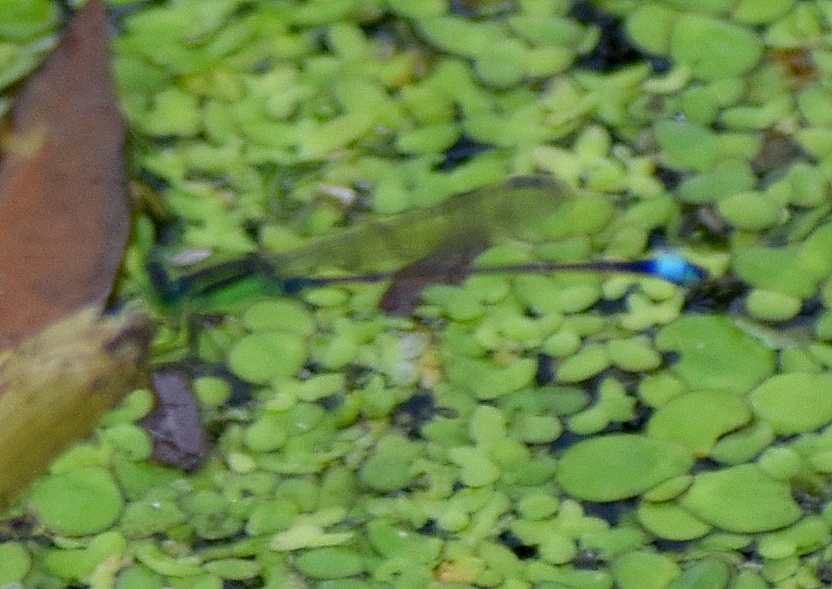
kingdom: Animalia
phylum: Arthropoda
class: Insecta
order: Odonata
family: Coenagrionidae
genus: Ischnura
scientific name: Ischnura senegalensis
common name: Tropical bluetail
